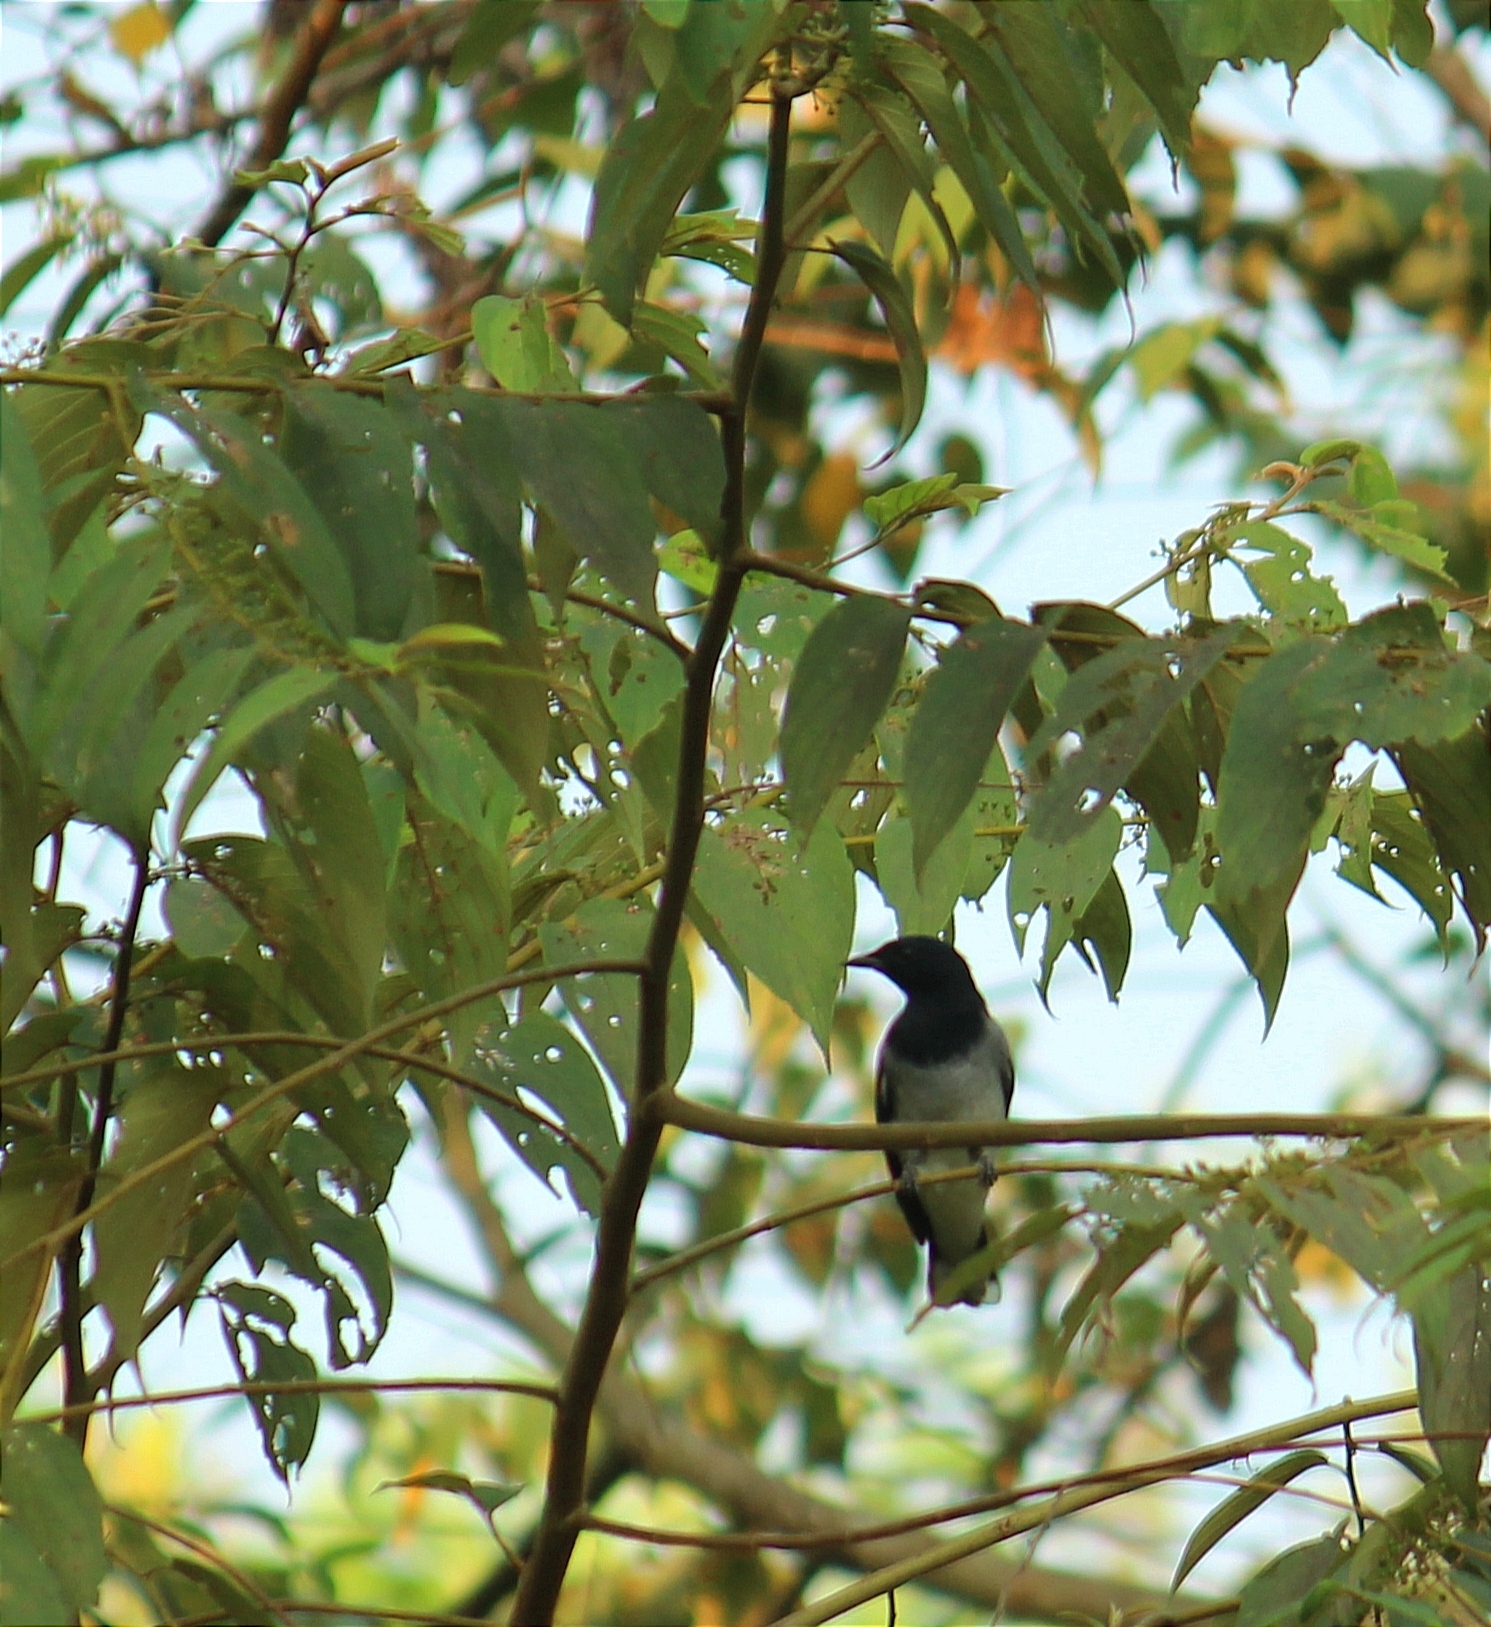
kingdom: Animalia
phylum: Chordata
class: Aves
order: Passeriformes
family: Campephagidae
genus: Coracina
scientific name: Coracina melanoptera
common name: Black-headed cuckooshrike
